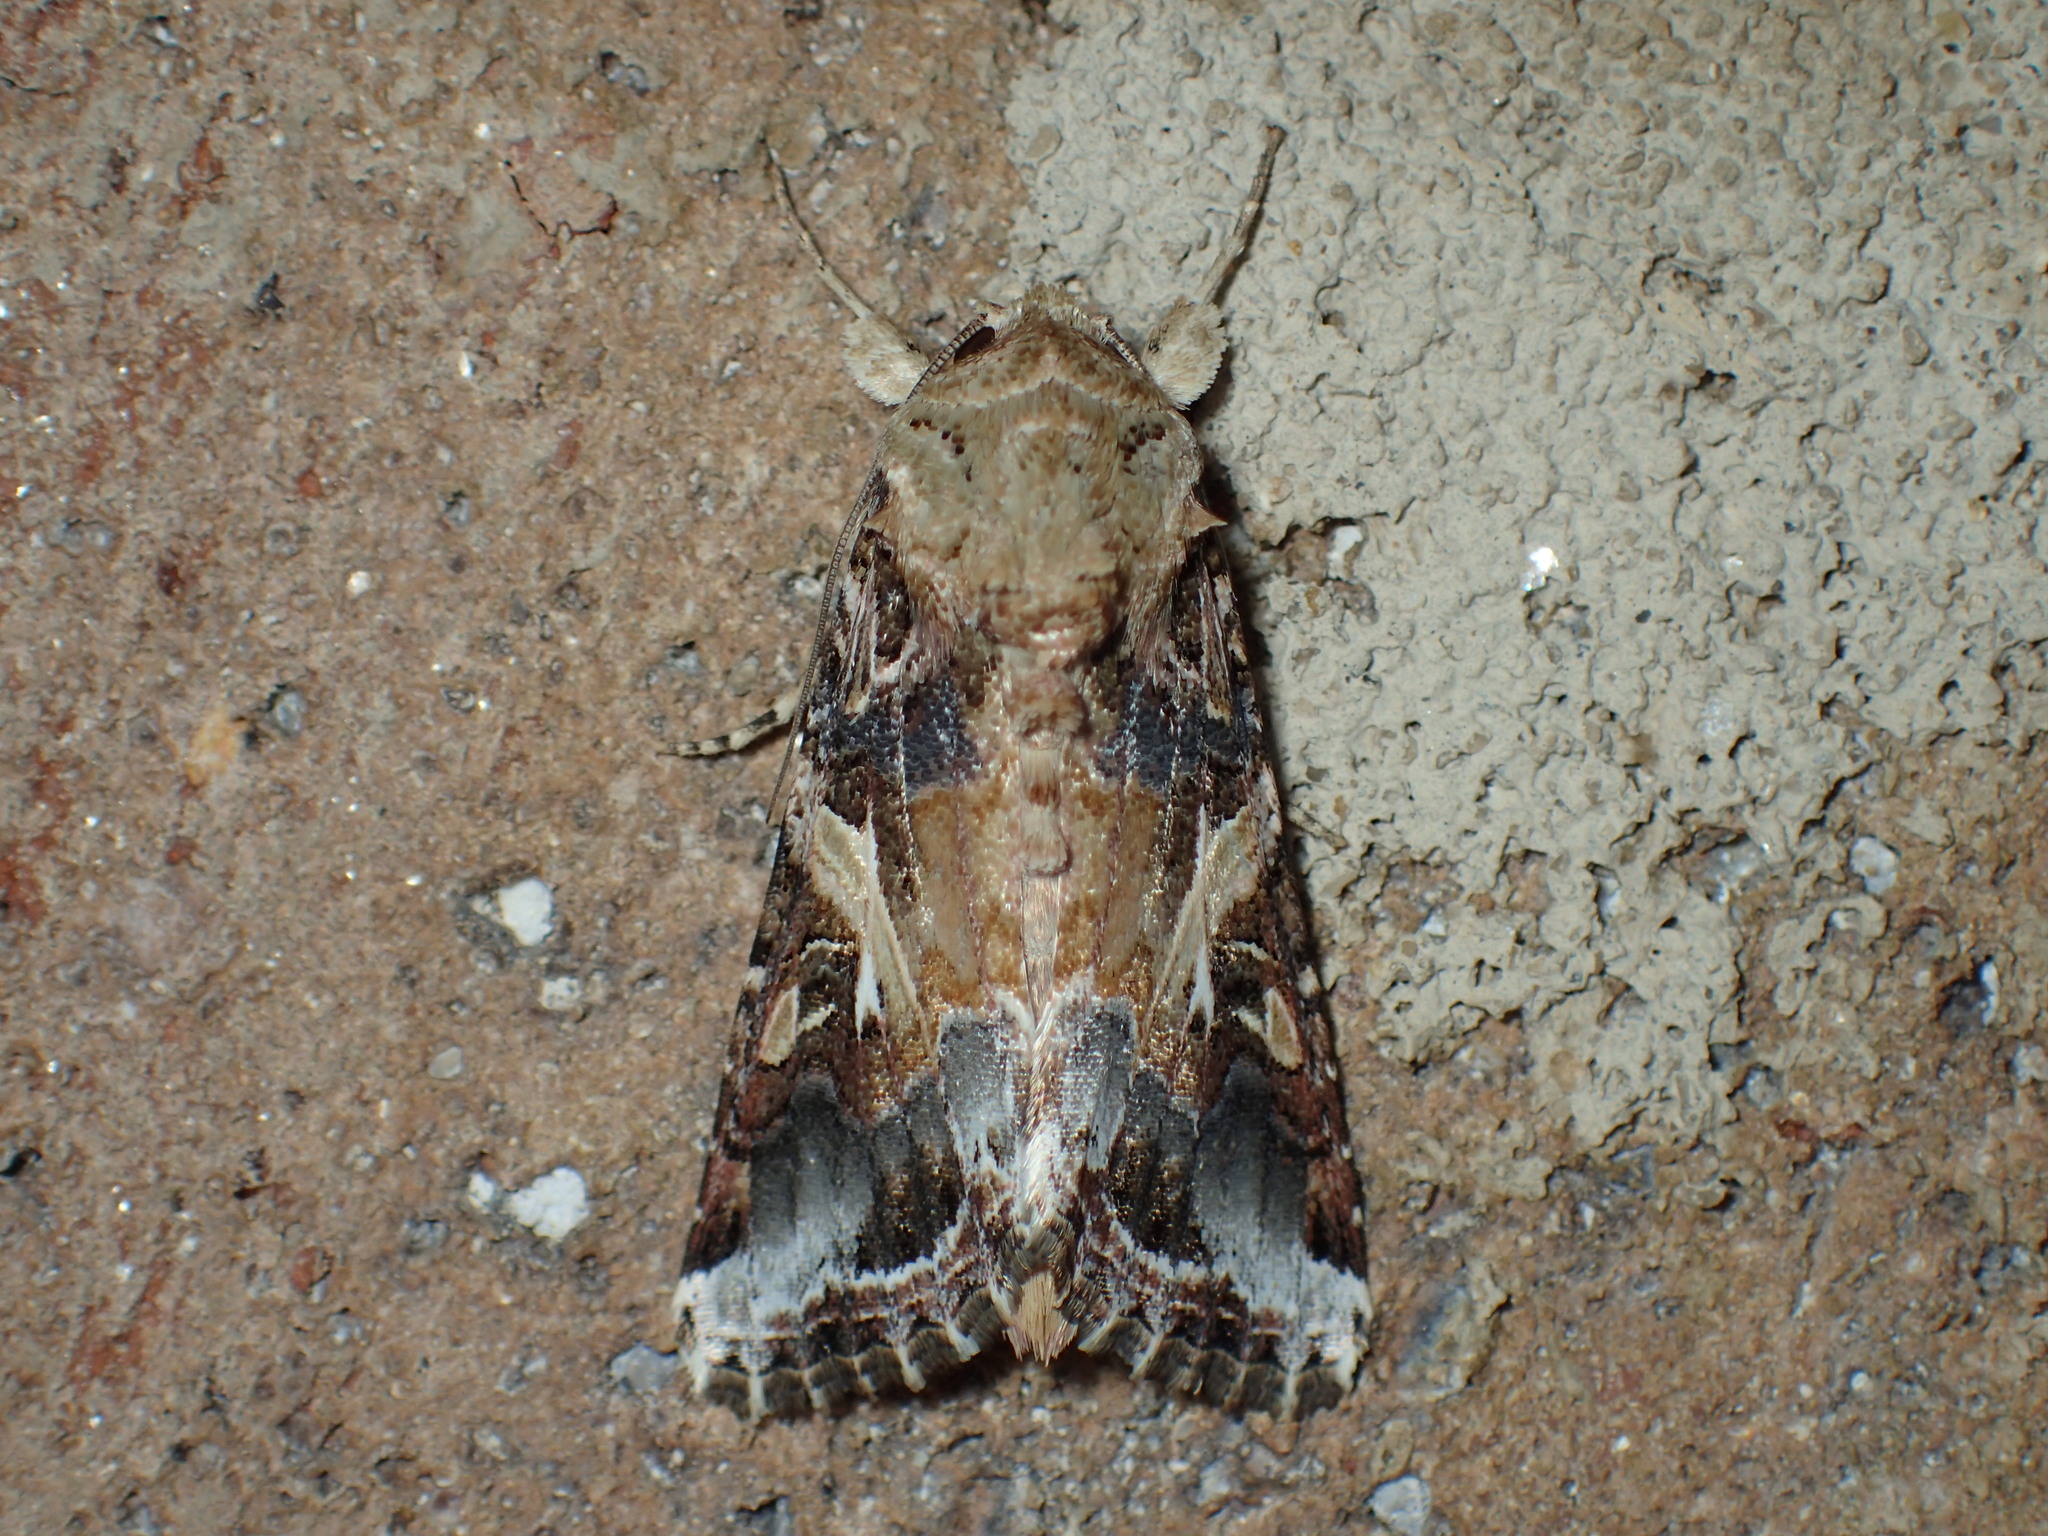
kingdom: Animalia
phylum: Arthropoda
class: Insecta
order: Lepidoptera
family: Noctuidae
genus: Spodoptera
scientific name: Spodoptera ornithogalli
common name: Yellow-striped armyworm
